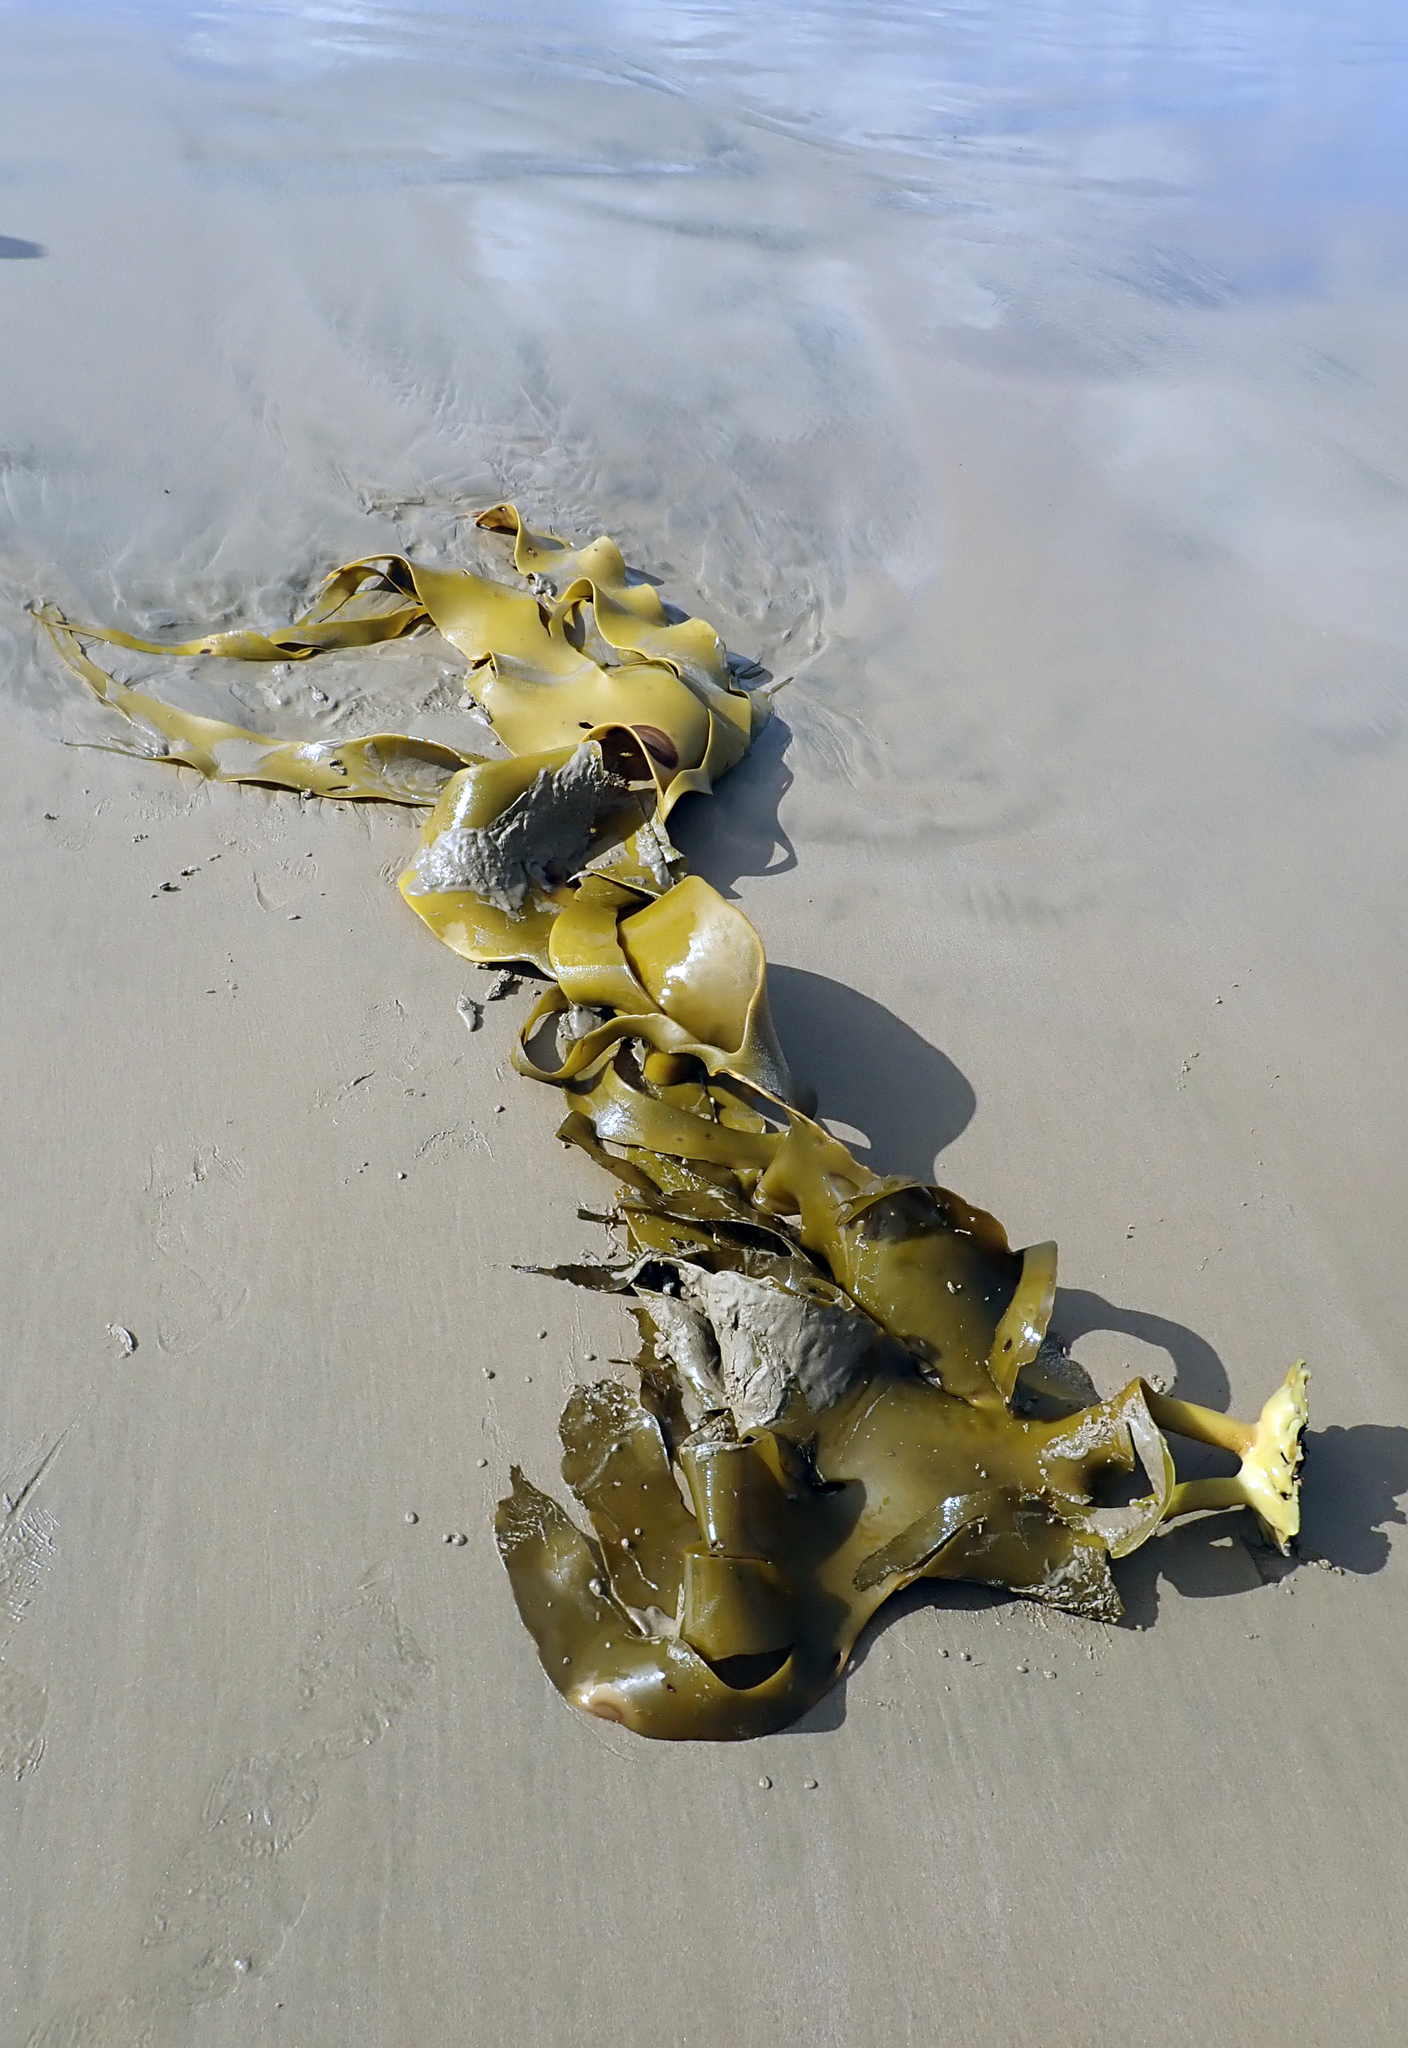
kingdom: Chromista
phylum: Ochrophyta
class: Phaeophyceae
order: Fucales
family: Durvillaeaceae
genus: Durvillaea
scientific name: Durvillaea poha
